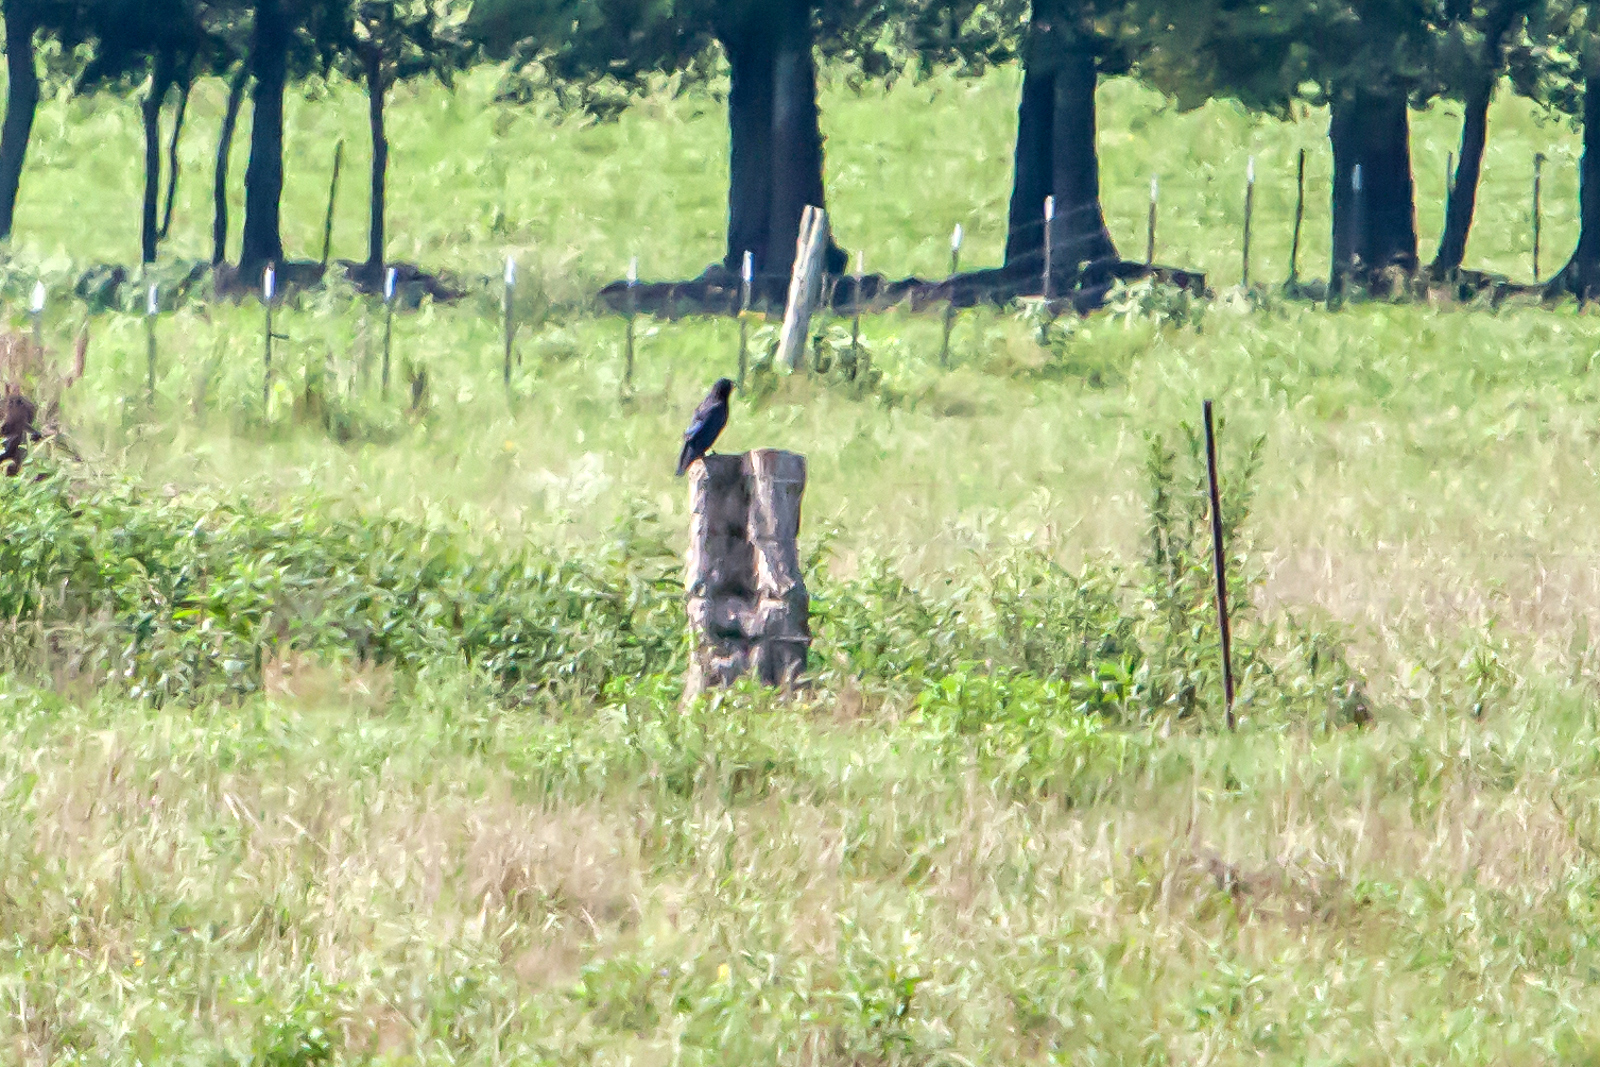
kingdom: Animalia
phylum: Chordata
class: Aves
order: Passeriformes
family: Corvidae
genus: Corvus
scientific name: Corvus brachyrhynchos
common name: American crow
